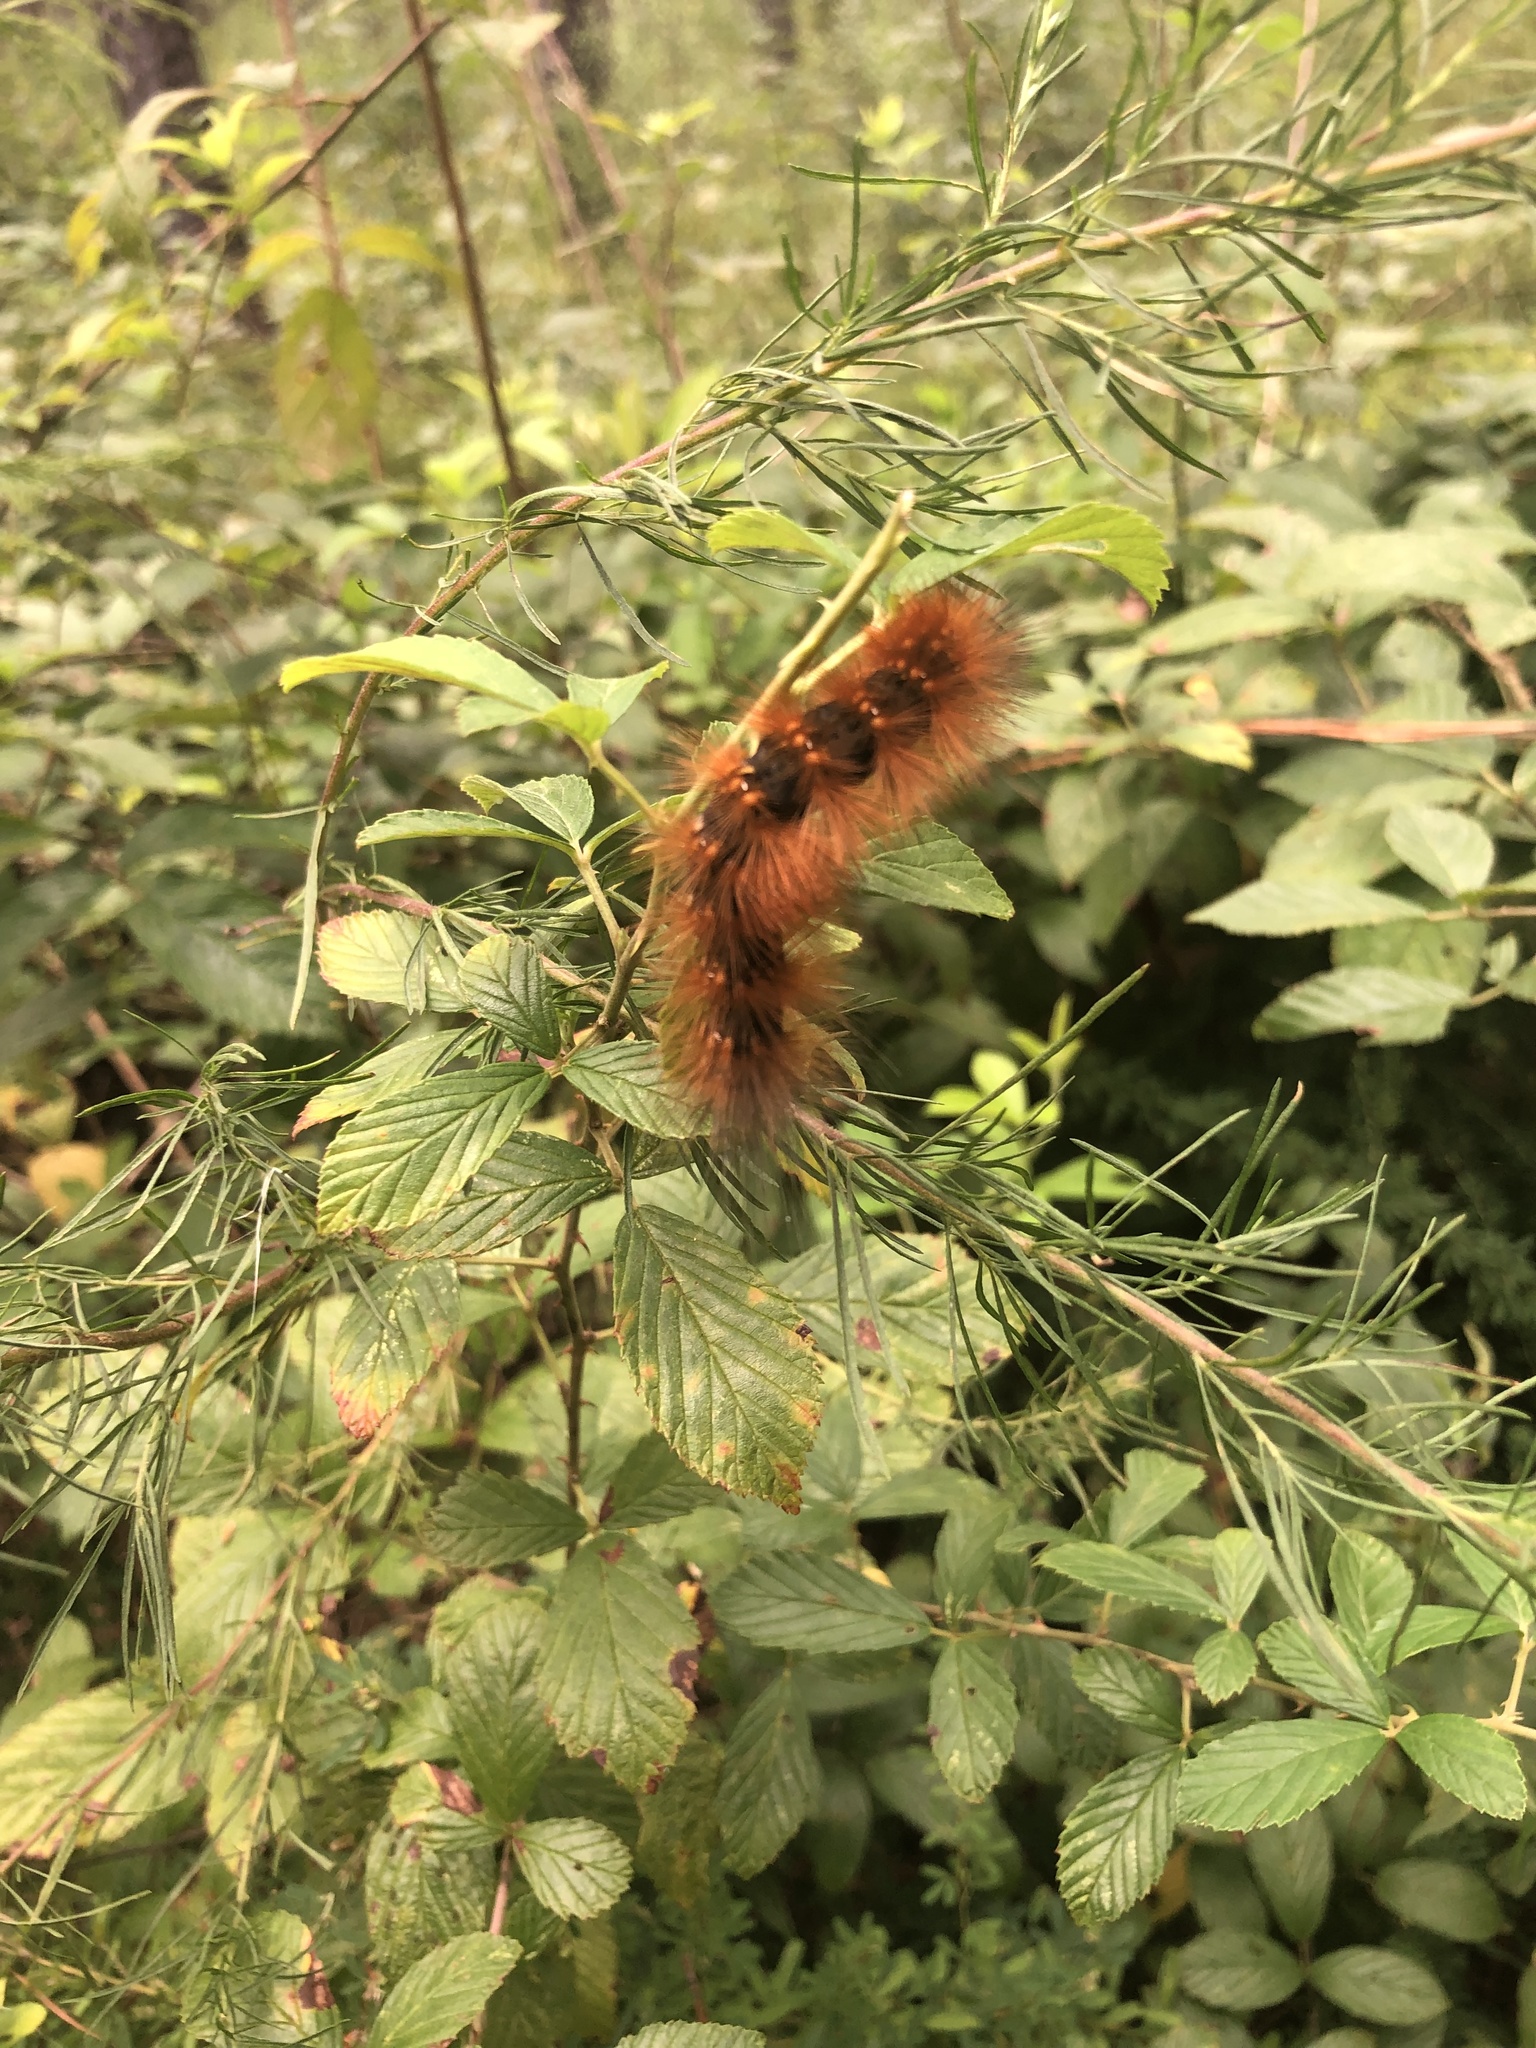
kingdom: Animalia
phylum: Arthropoda
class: Insecta
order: Lepidoptera
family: Erebidae
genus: Estigmene
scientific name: Estigmene acrea
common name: Salt marsh moth
